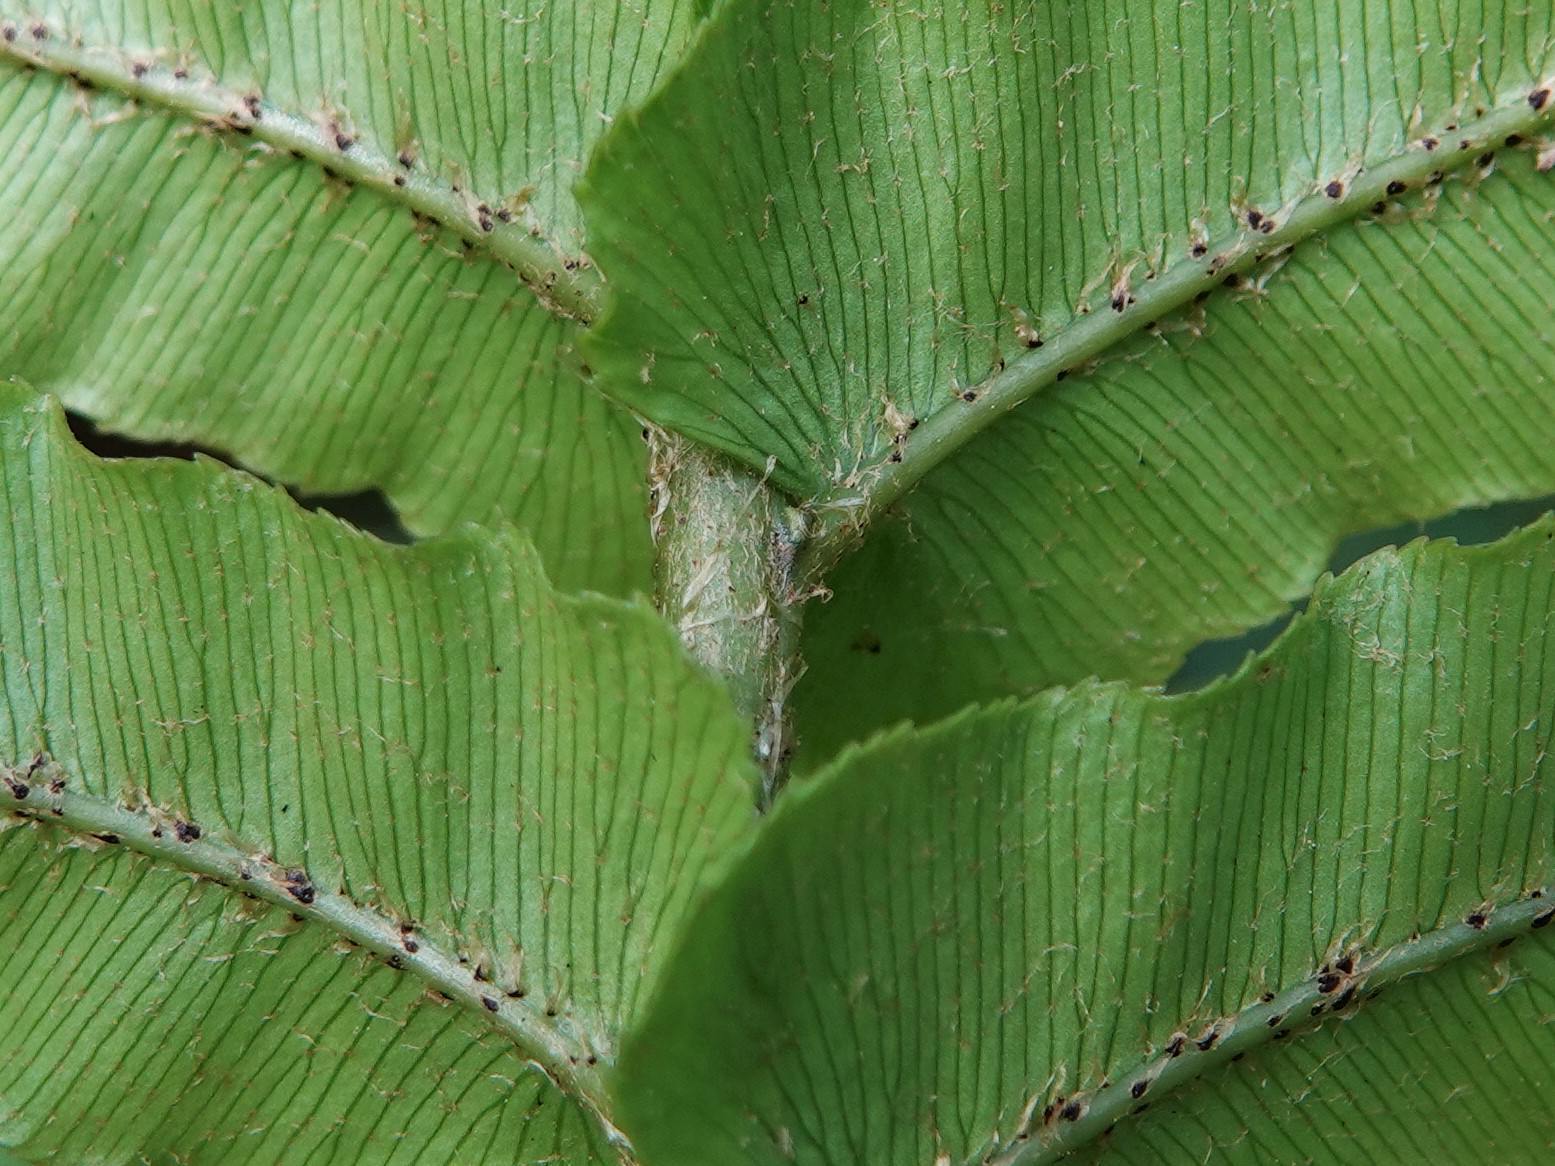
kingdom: Plantae
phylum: Tracheophyta
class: Polypodiopsida
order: Polypodiales
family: Blechnaceae
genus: Parablechnum
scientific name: Parablechnum novae-zelandiae
